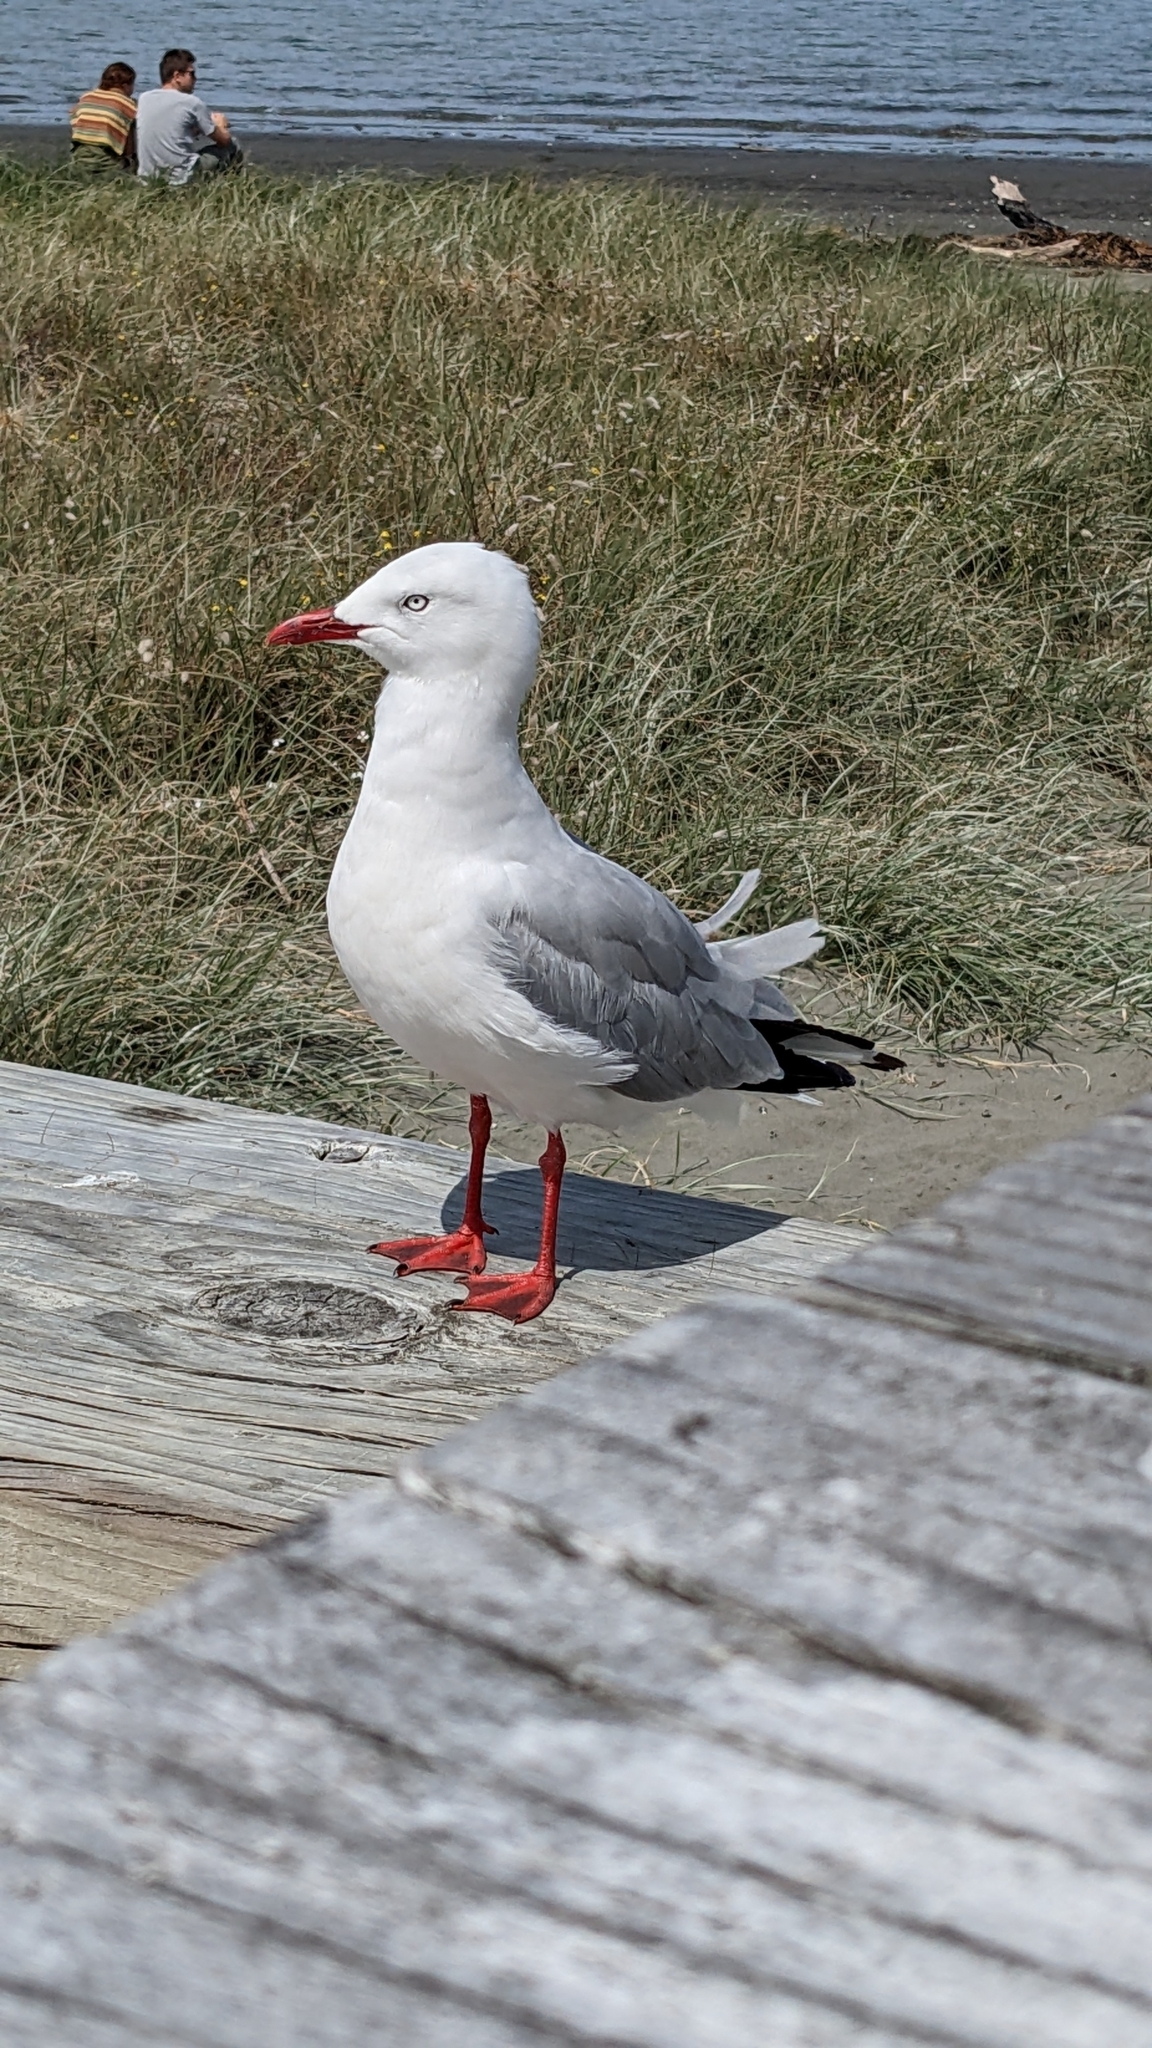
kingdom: Animalia
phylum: Chordata
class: Aves
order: Charadriiformes
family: Laridae
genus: Chroicocephalus
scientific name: Chroicocephalus novaehollandiae
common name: Silver gull
